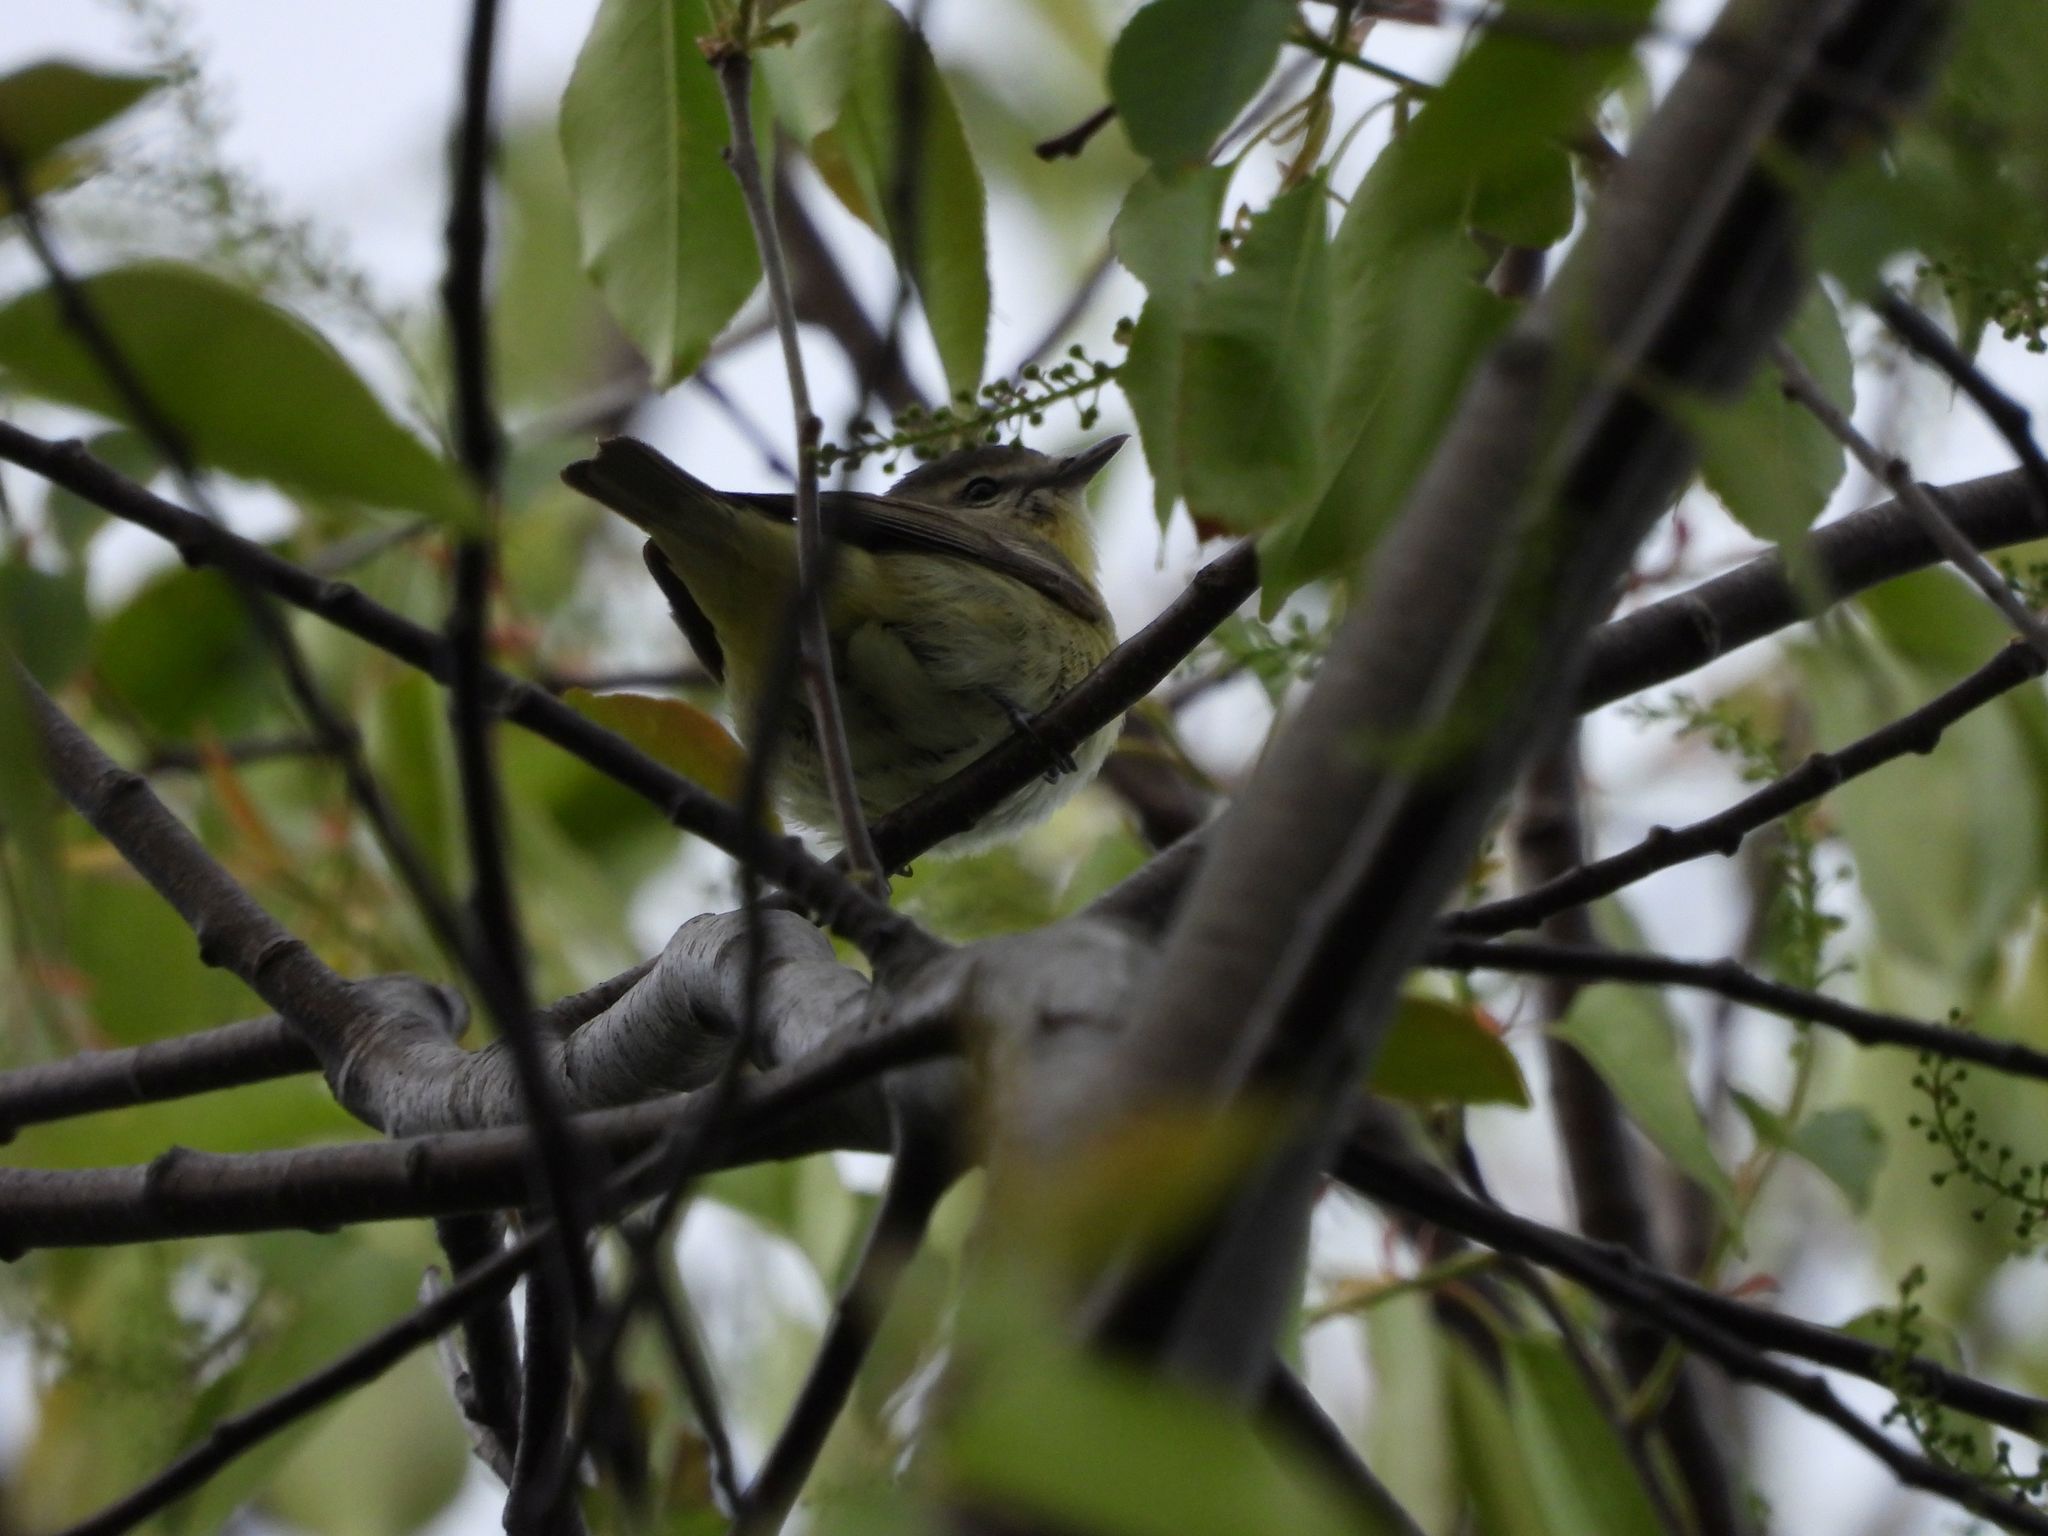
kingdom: Animalia
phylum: Chordata
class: Aves
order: Passeriformes
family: Vireonidae
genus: Vireo
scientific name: Vireo philadelphicus
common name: Philadelphia vireo
